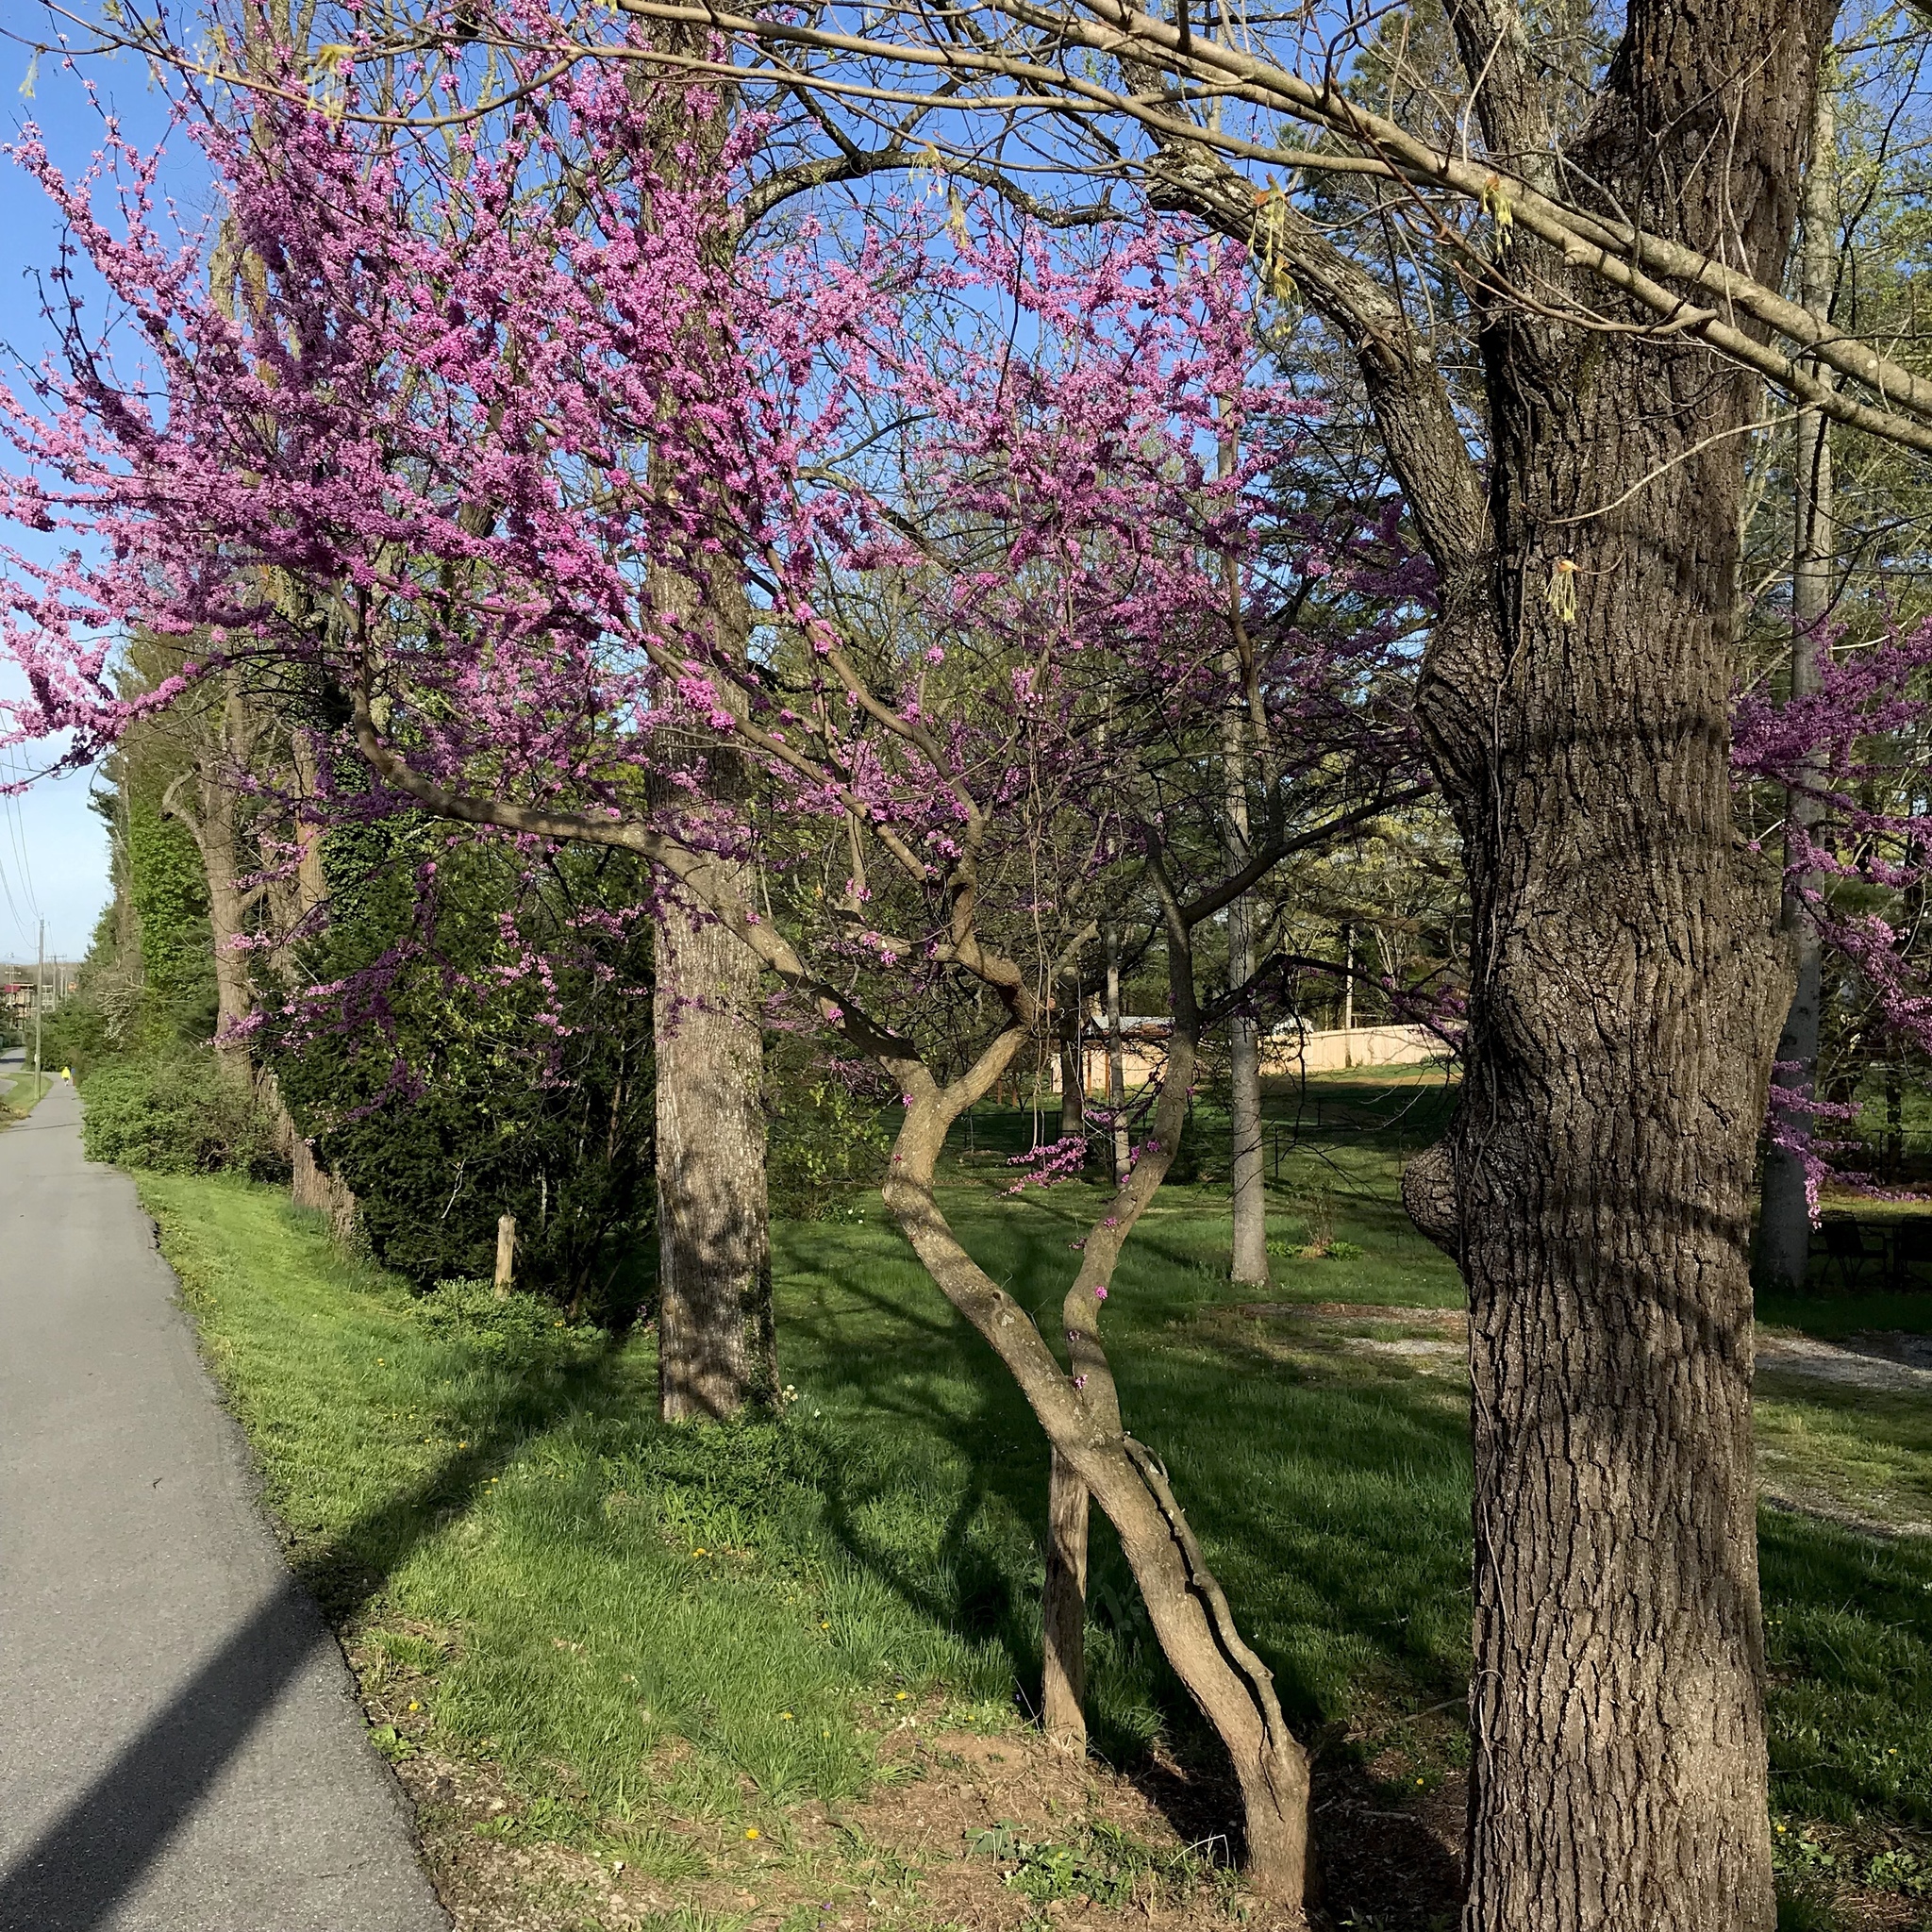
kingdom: Plantae
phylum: Tracheophyta
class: Magnoliopsida
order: Fabales
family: Fabaceae
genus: Cercis
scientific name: Cercis canadensis
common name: Eastern redbud
